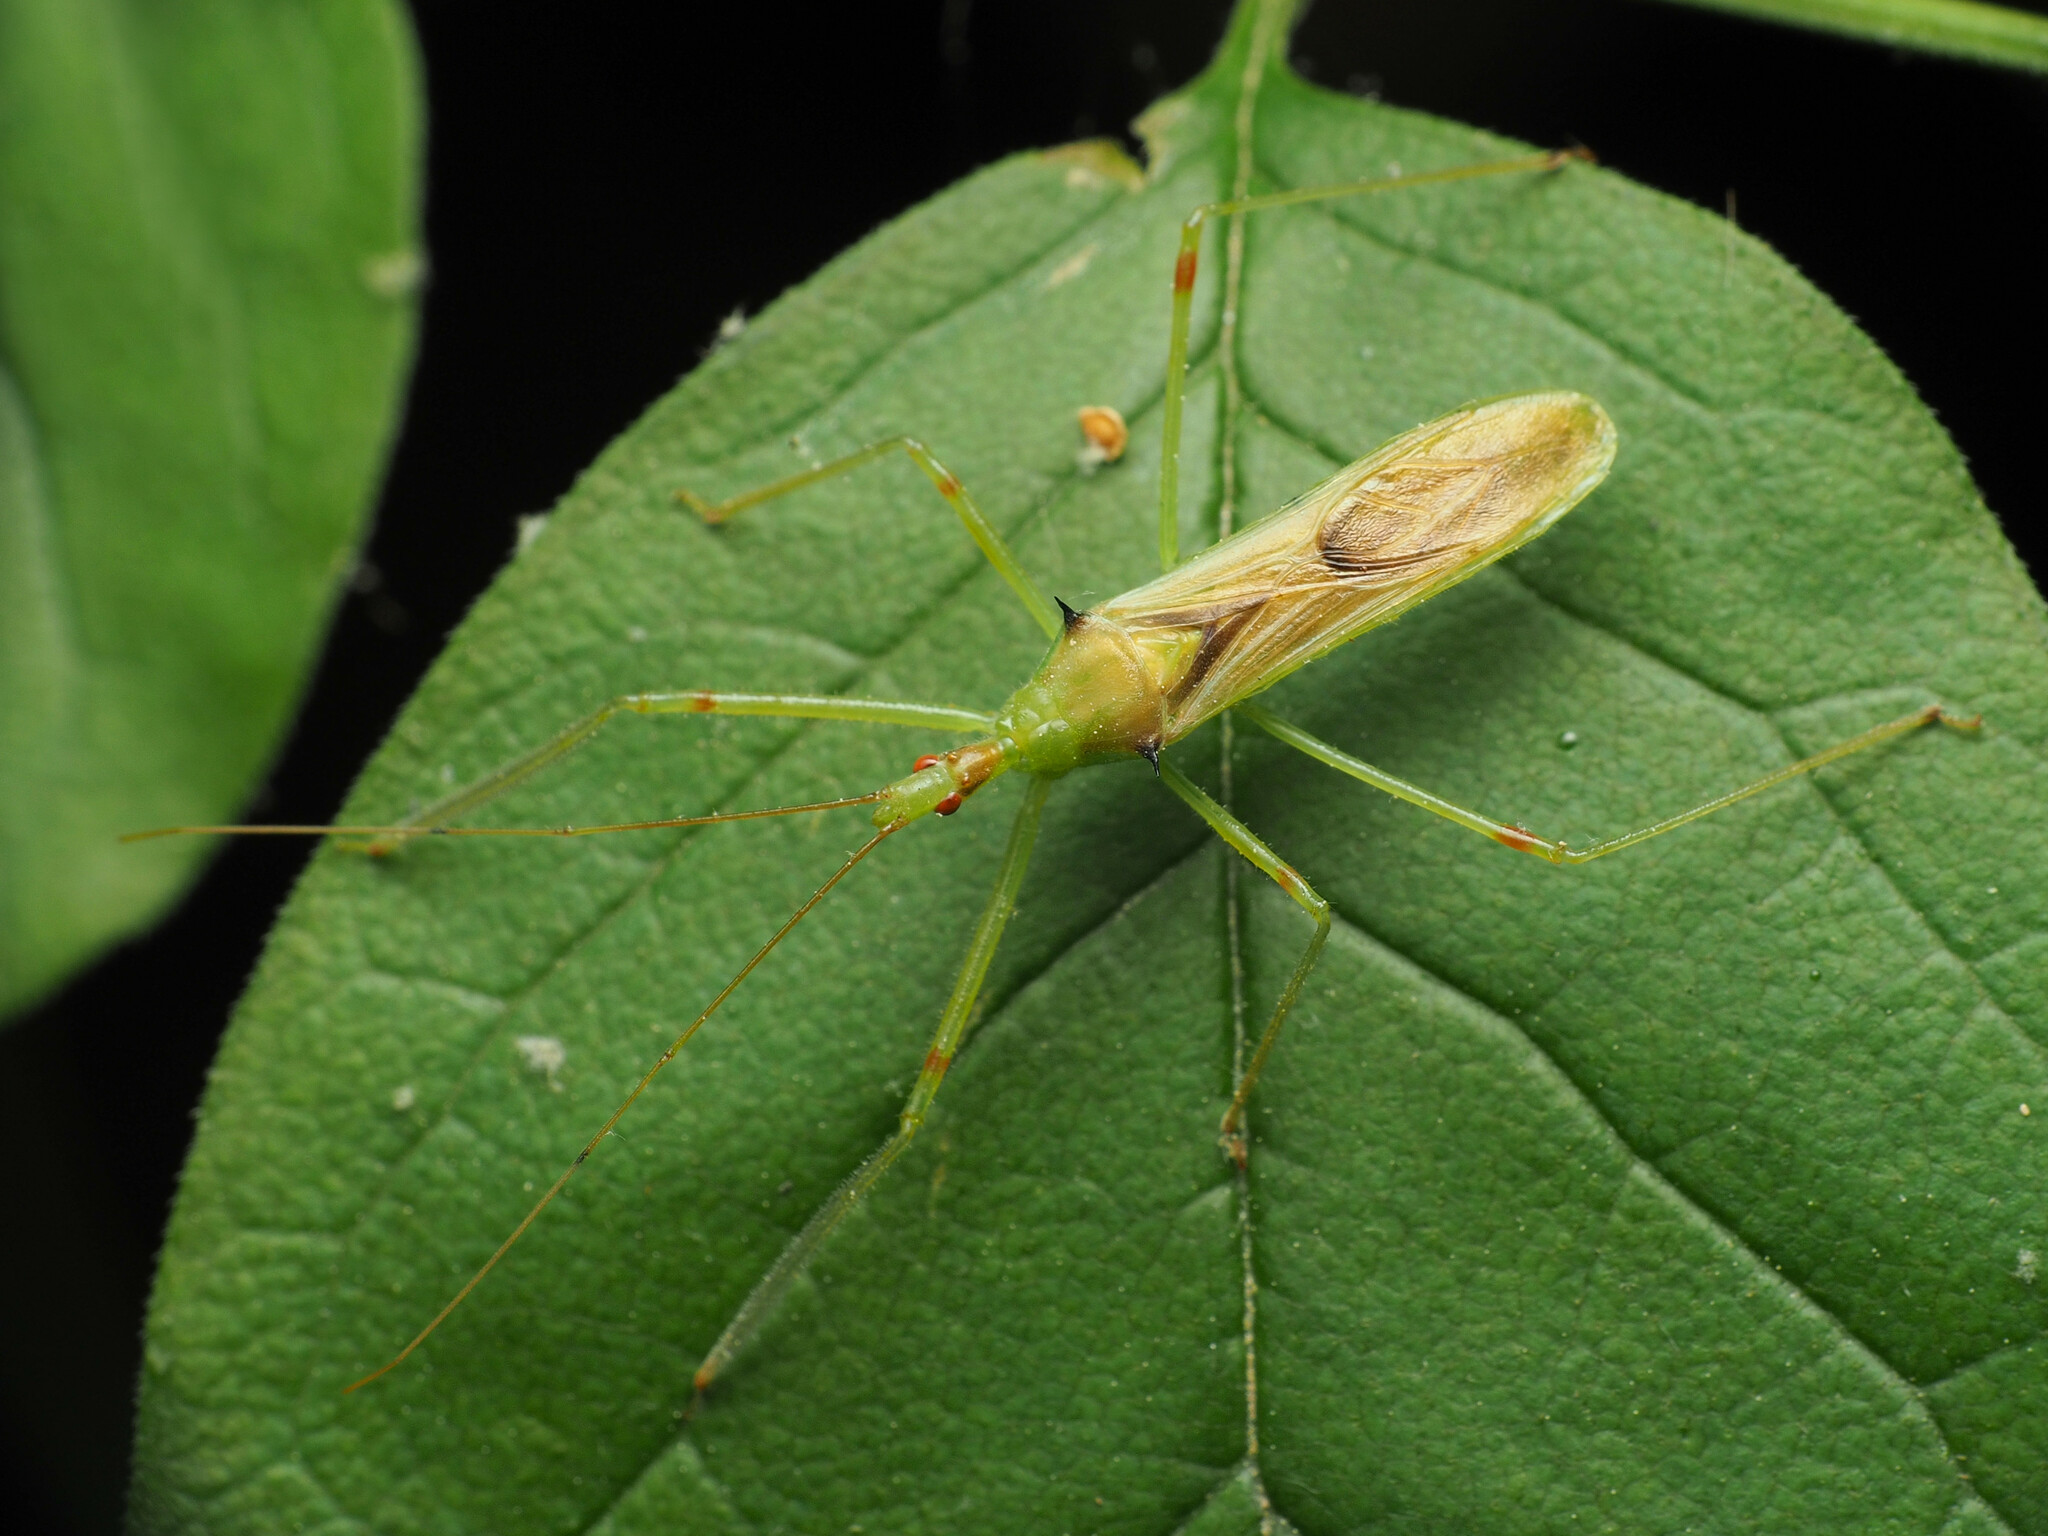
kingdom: Animalia
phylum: Arthropoda
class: Insecta
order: Hemiptera
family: Reduviidae
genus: Zelus
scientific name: Zelus luridus
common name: Pale green assassin bug
